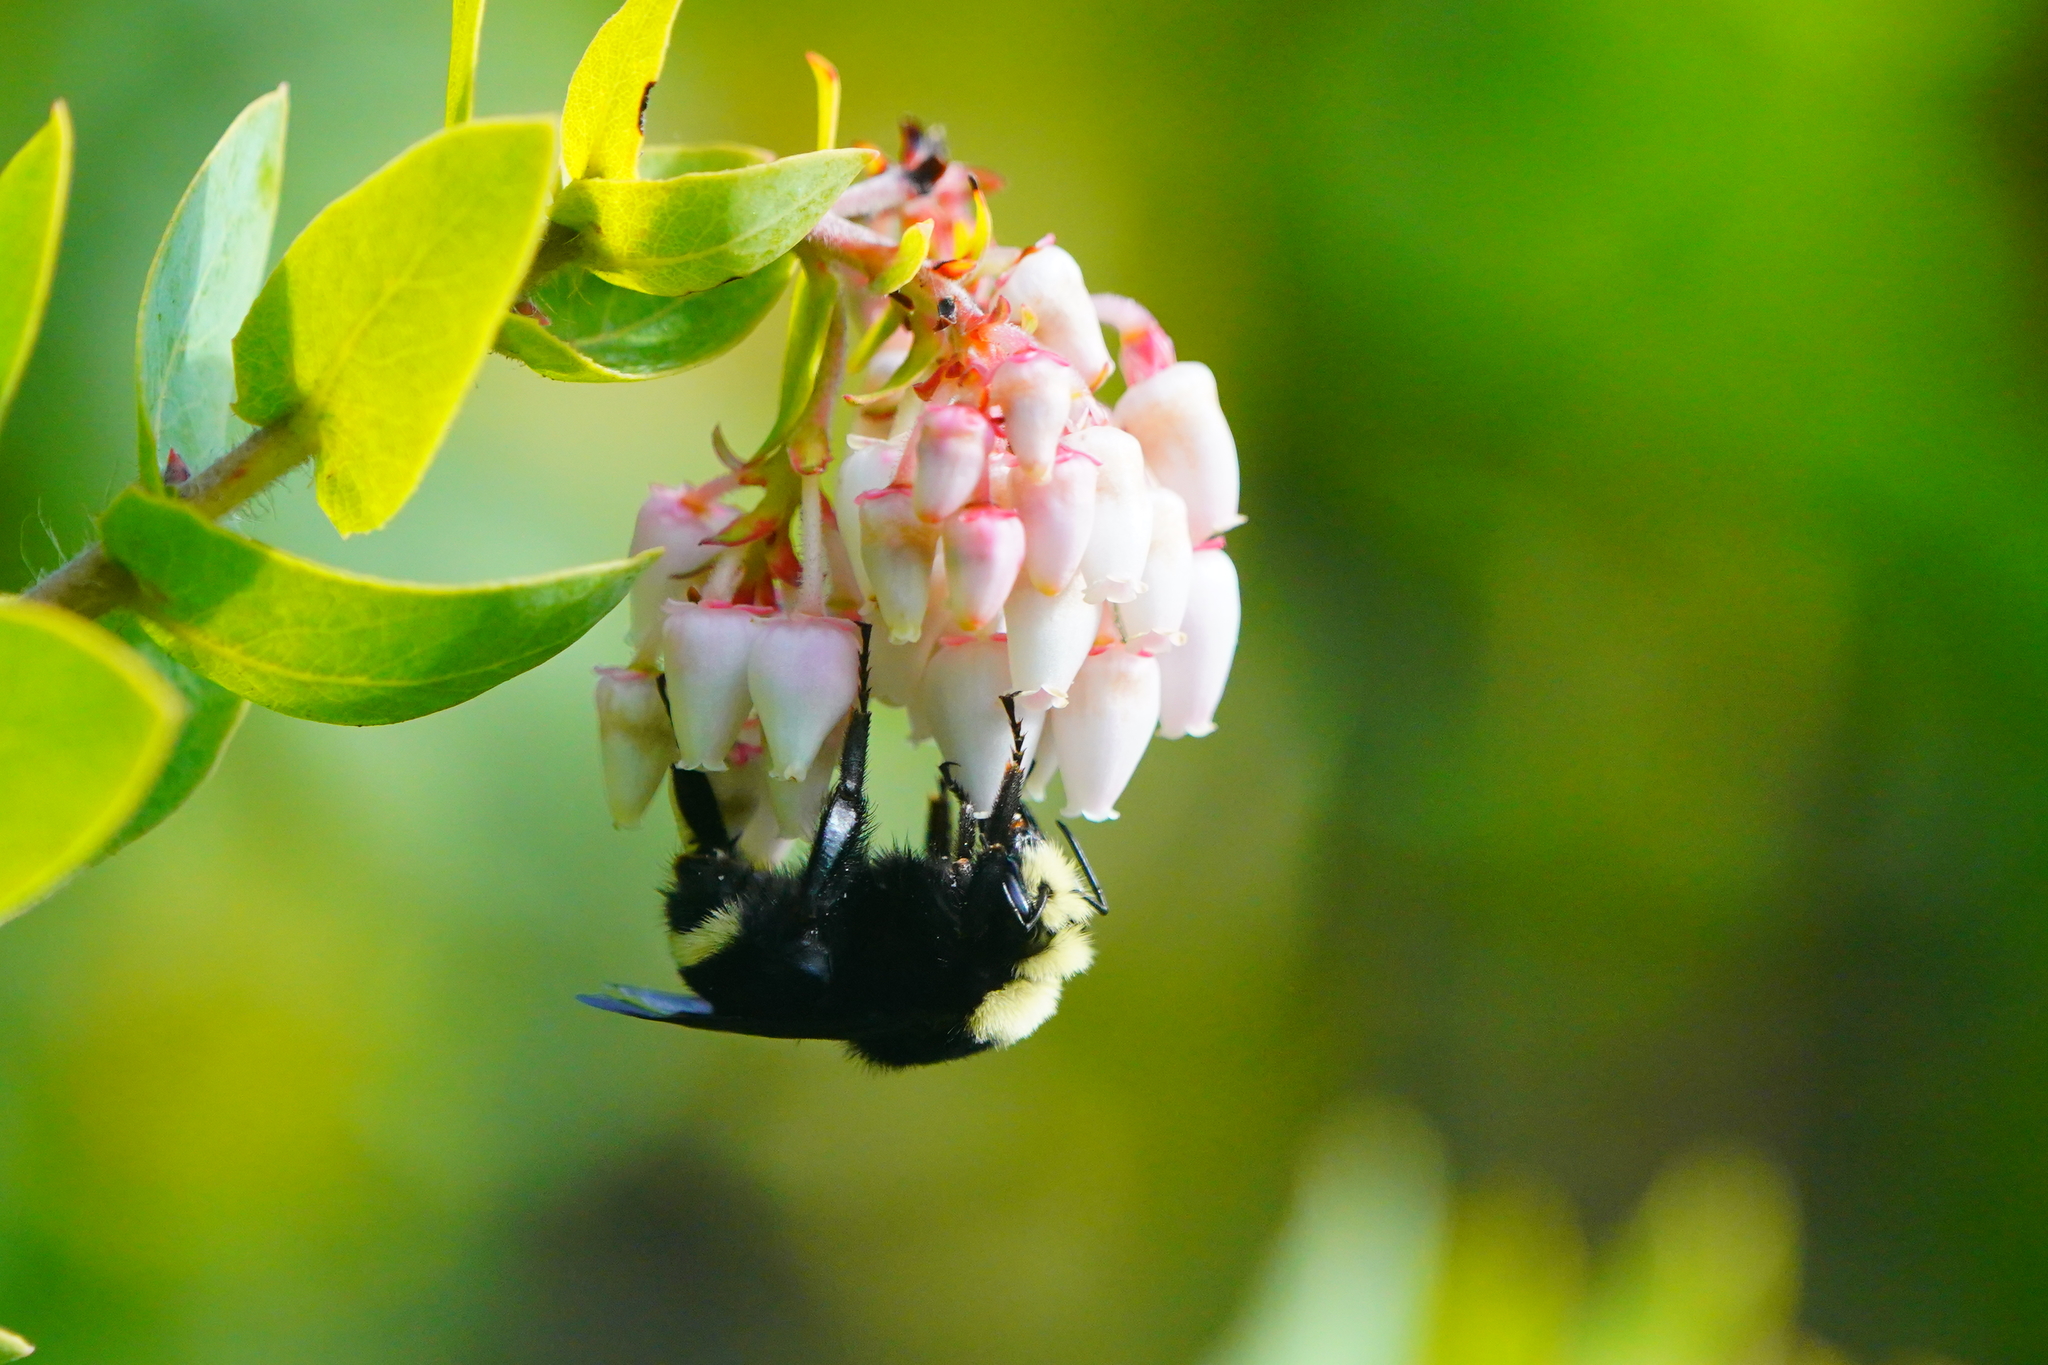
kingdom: Animalia
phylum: Arthropoda
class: Insecta
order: Hymenoptera
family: Apidae
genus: Pyrobombus
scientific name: Pyrobombus
